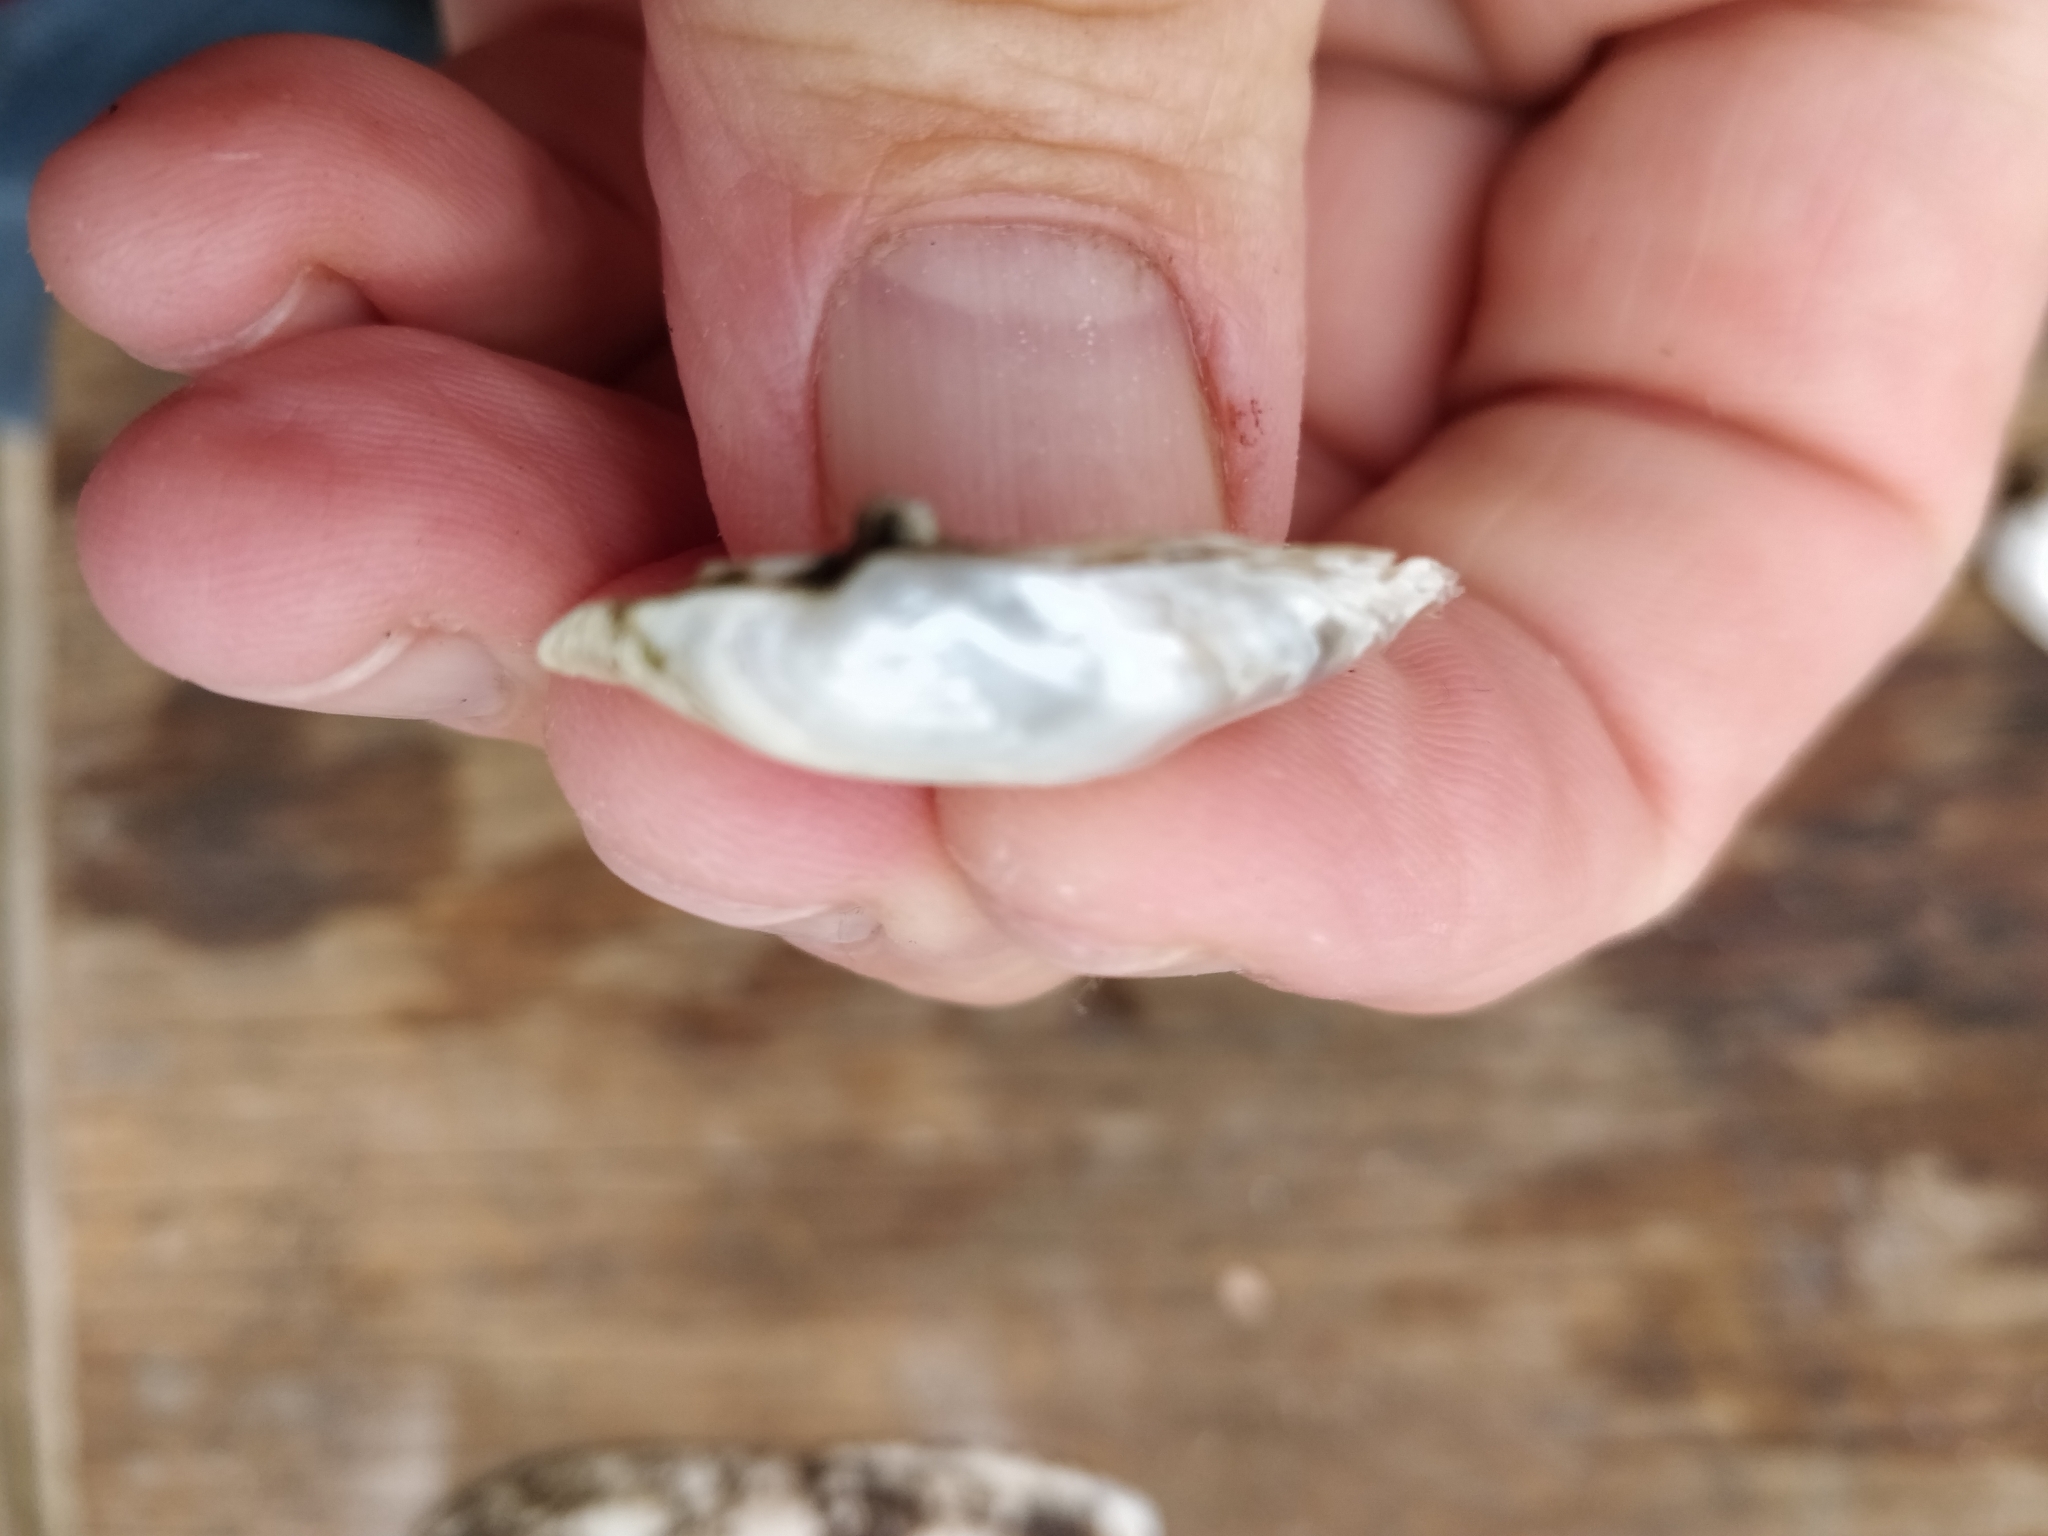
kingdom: Animalia
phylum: Mollusca
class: Bivalvia
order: Unionida
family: Unionidae
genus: Truncilla
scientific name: Truncilla donaciformis
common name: Fawnsfoot
